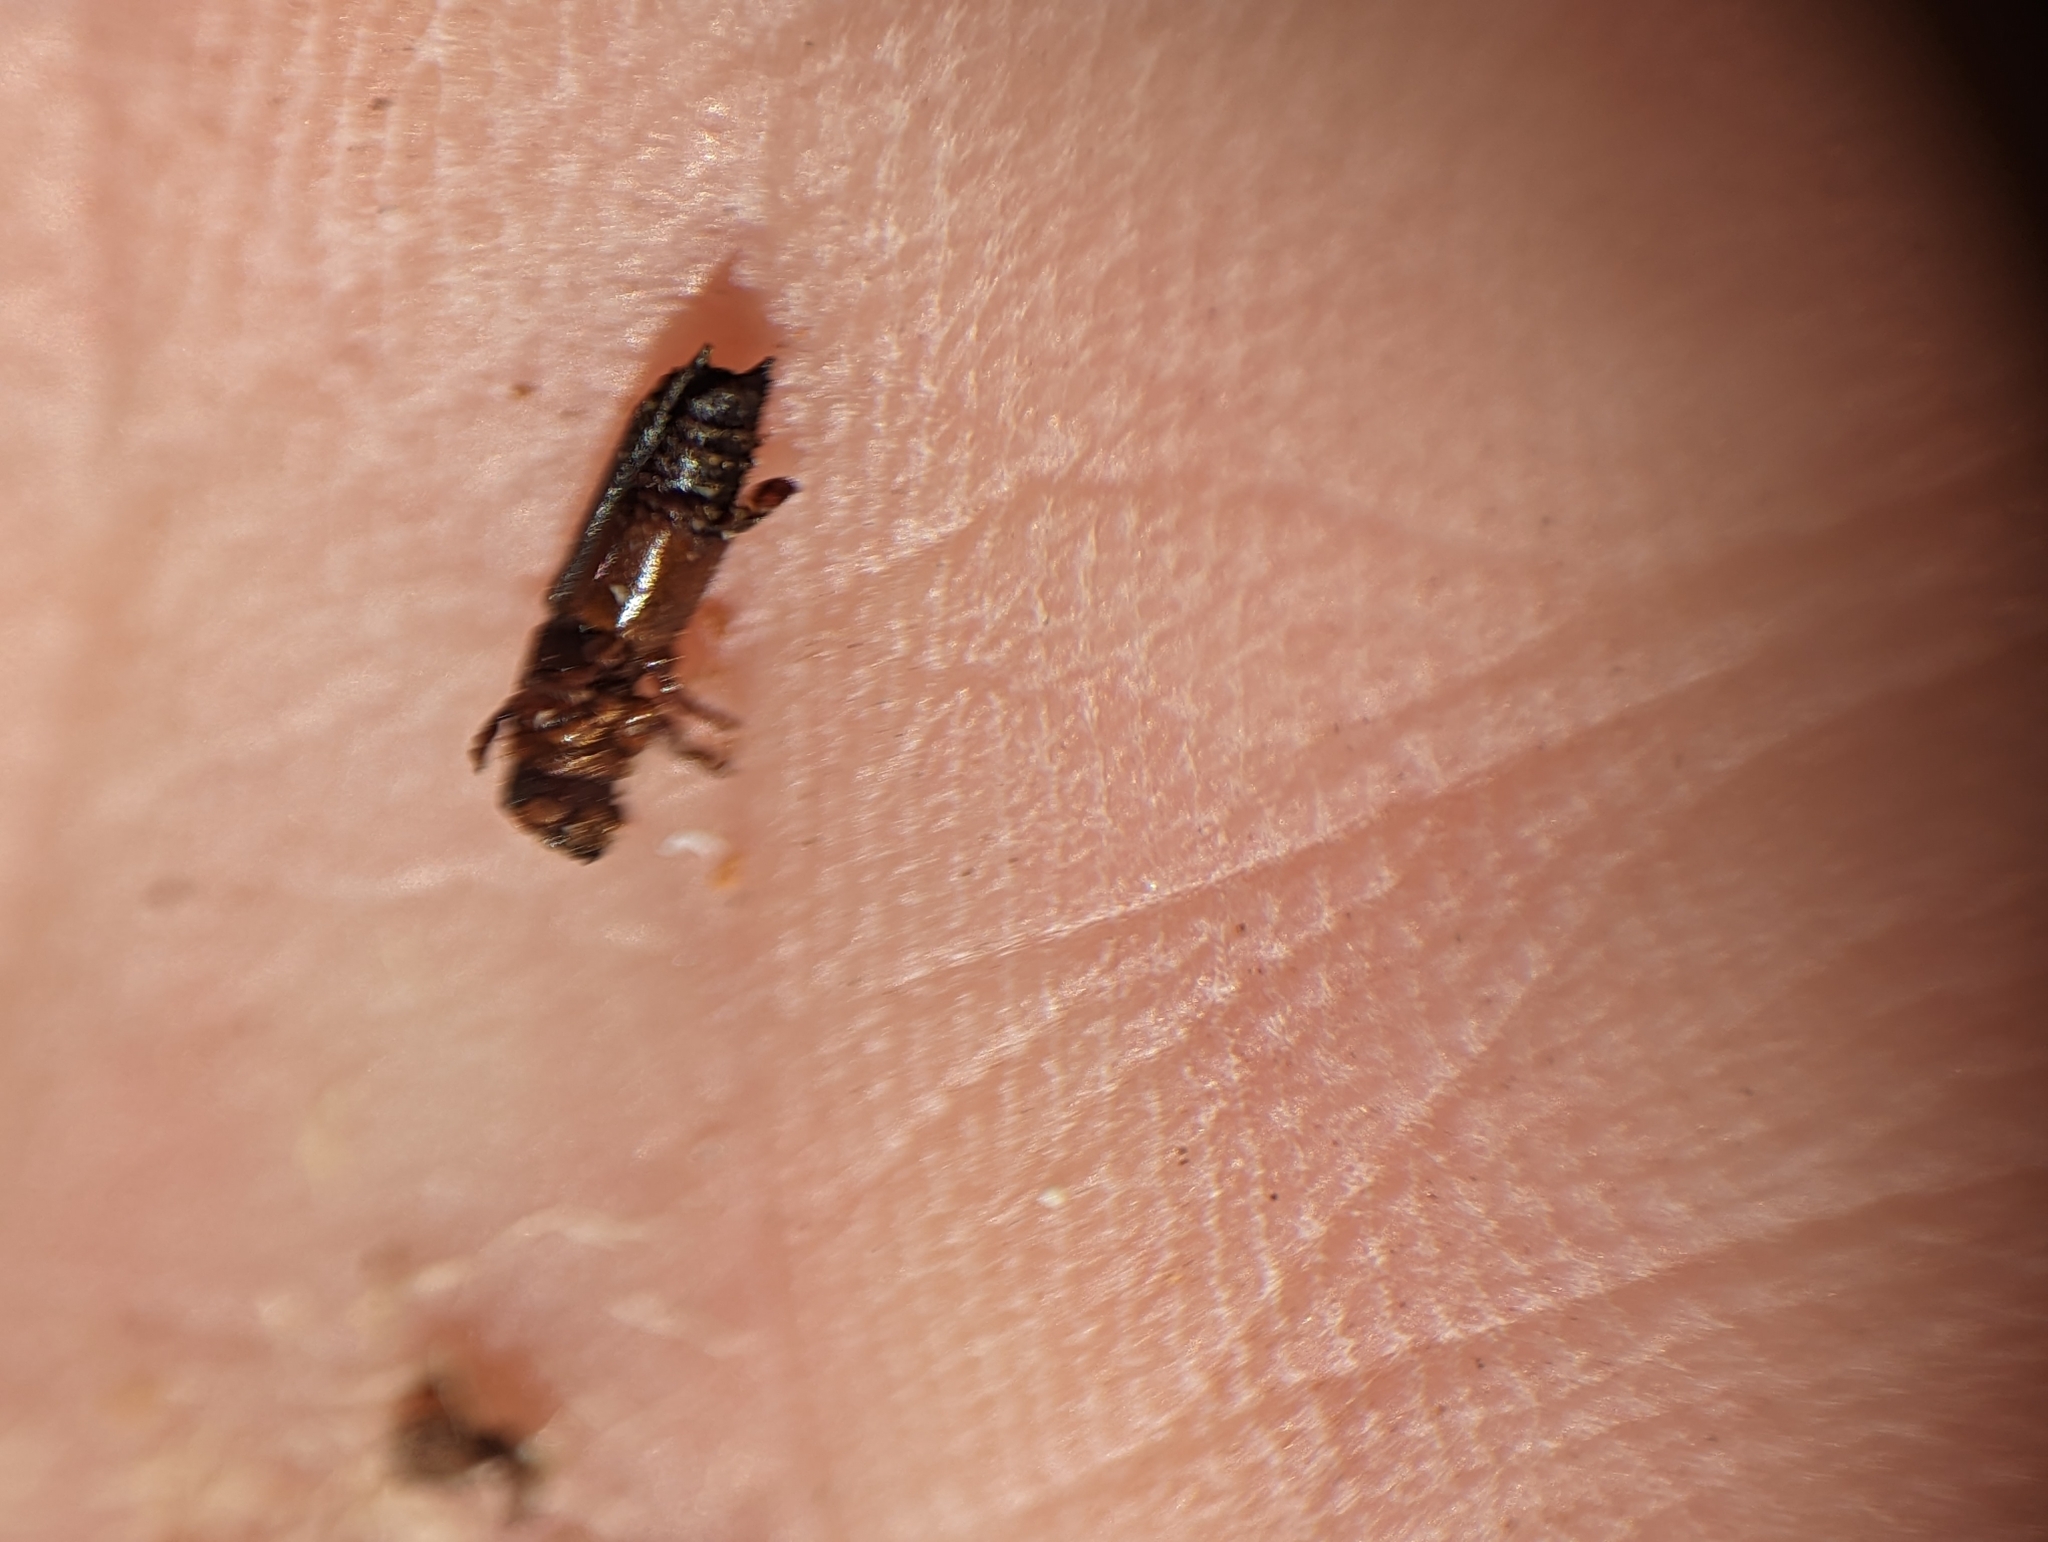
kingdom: Animalia
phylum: Arthropoda
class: Insecta
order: Coleoptera
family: Curculionidae
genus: Myoplatypus
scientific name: Myoplatypus flavicornis
